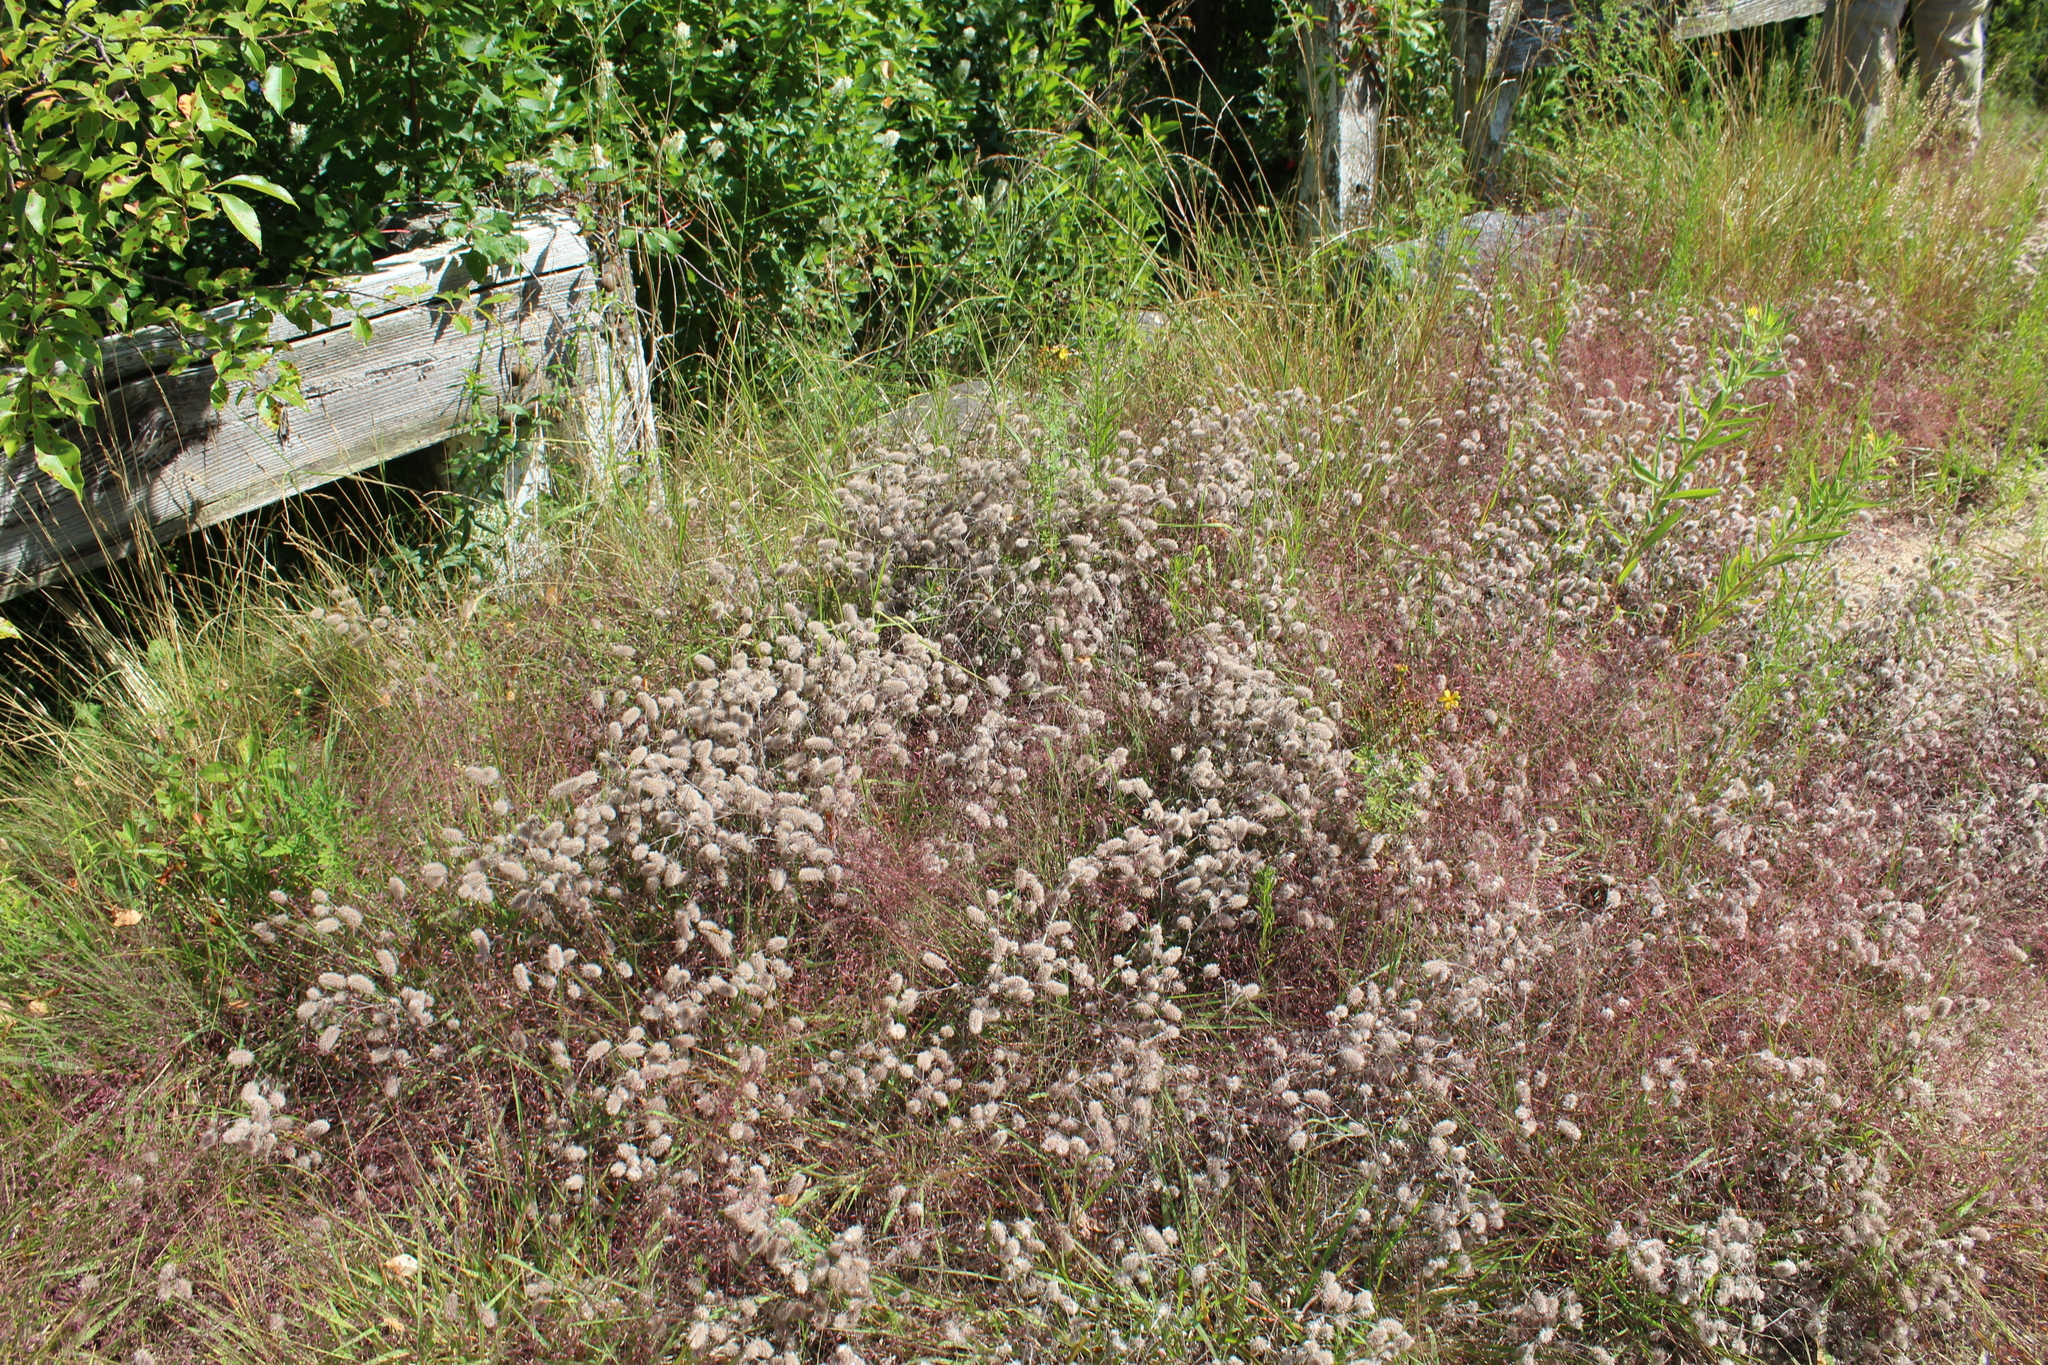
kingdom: Plantae
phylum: Tracheophyta
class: Magnoliopsida
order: Fabales
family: Fabaceae
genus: Trifolium
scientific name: Trifolium arvense
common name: Hare's-foot clover
